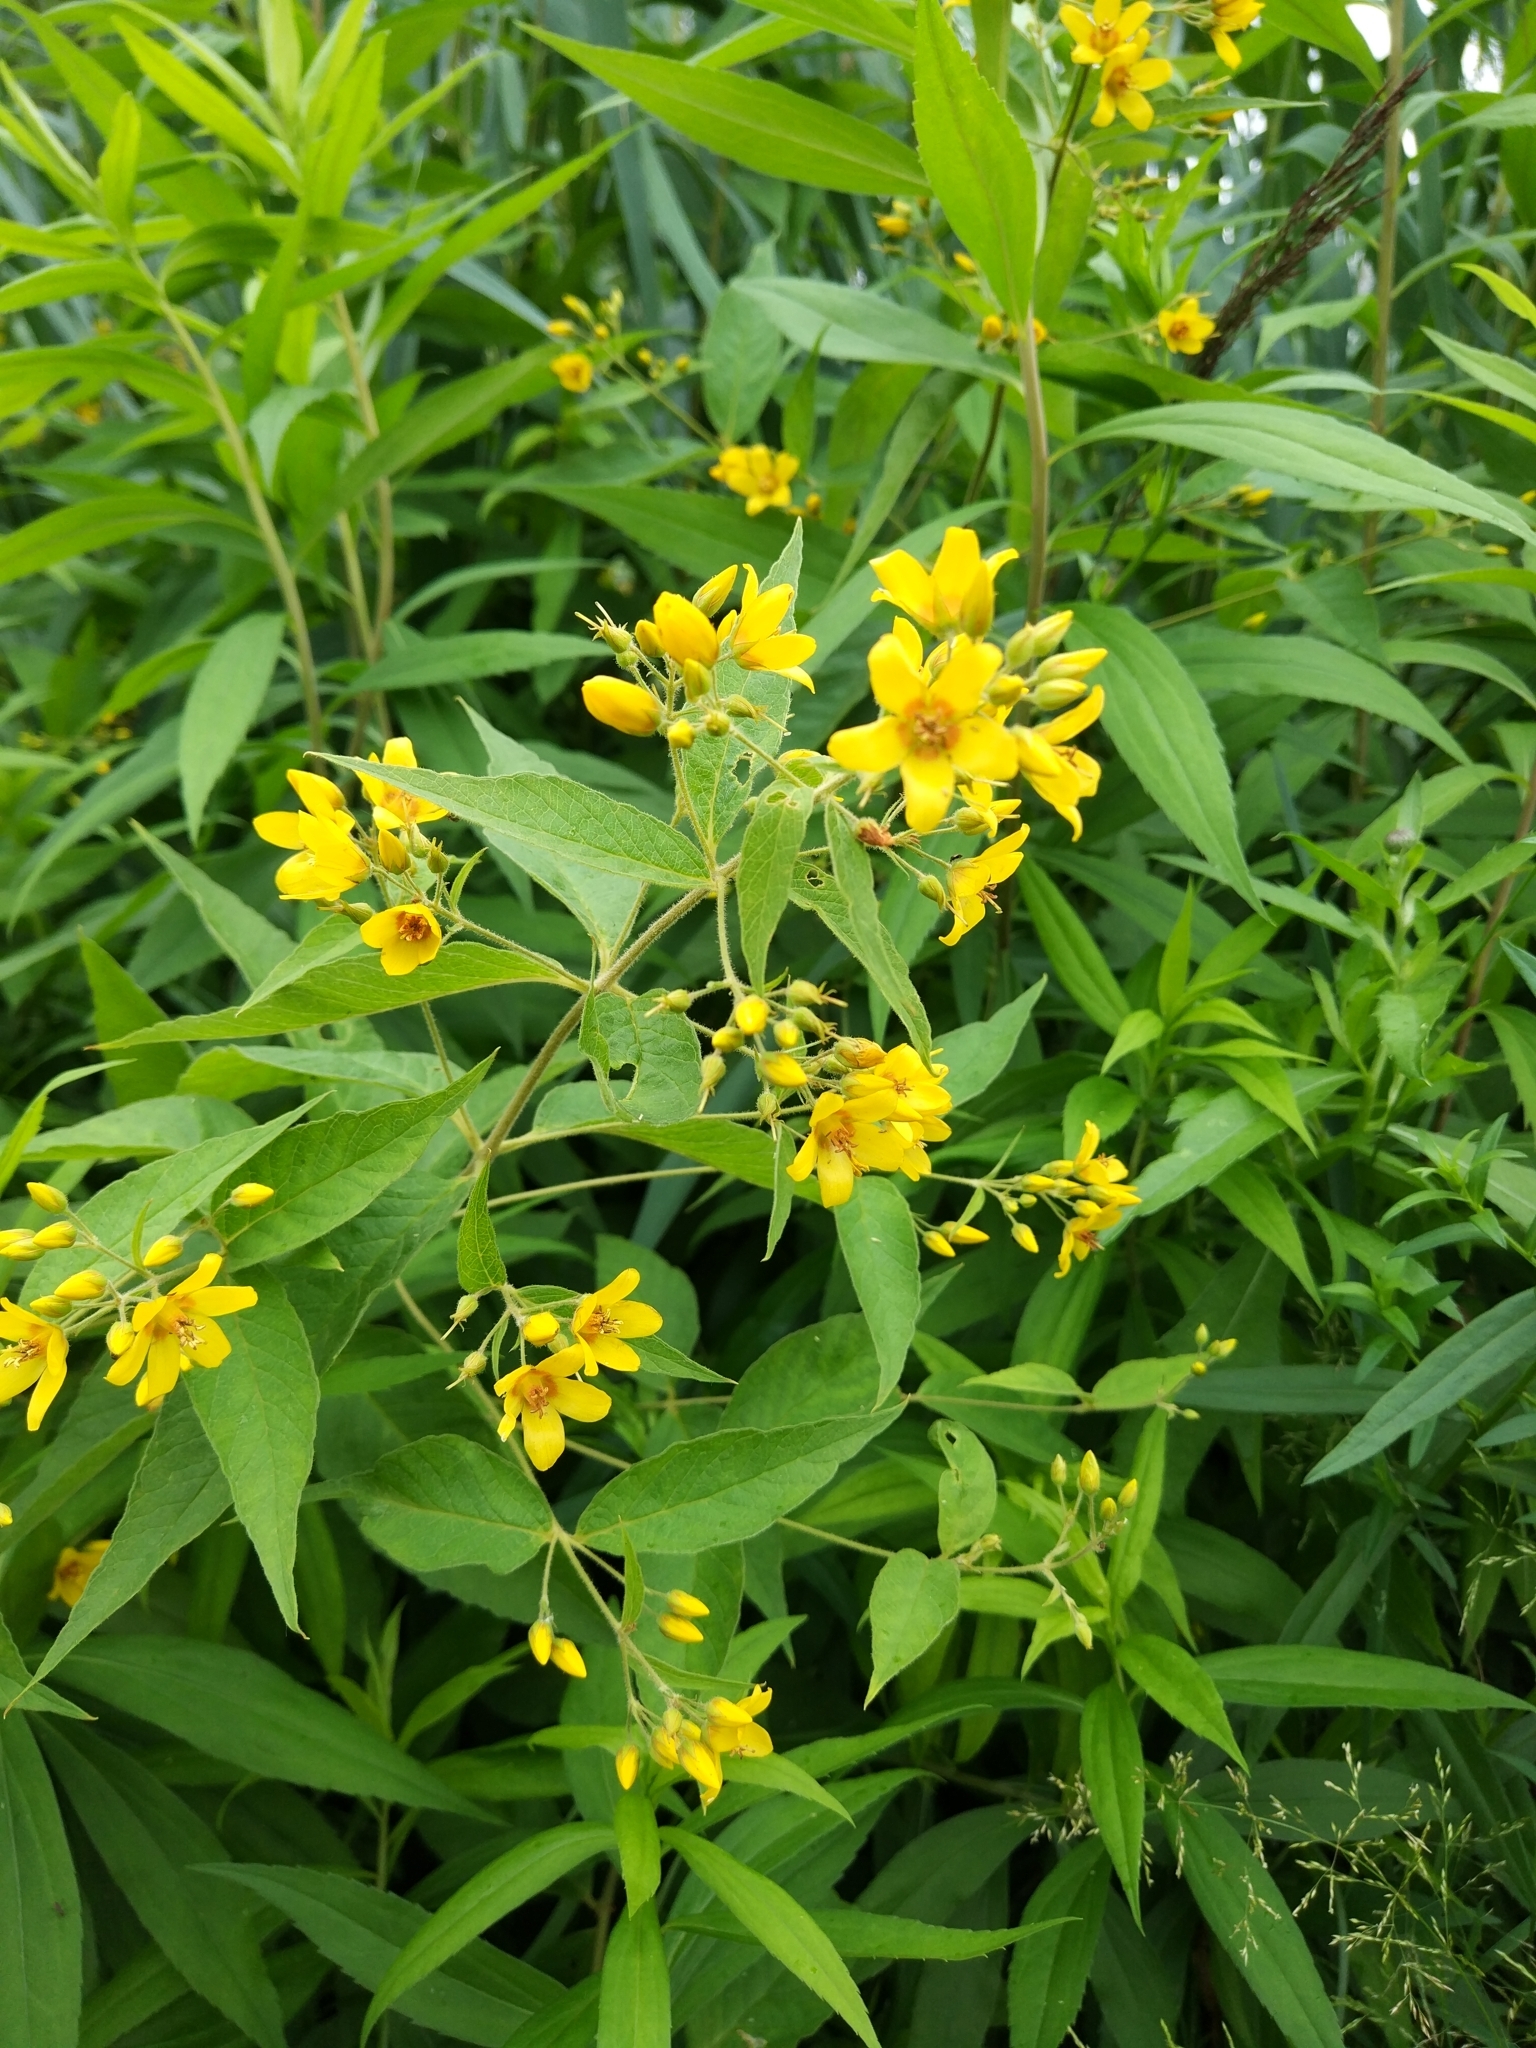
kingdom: Plantae
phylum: Tracheophyta
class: Magnoliopsida
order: Ericales
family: Primulaceae
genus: Lysimachia
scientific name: Lysimachia vulgaris
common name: Yellow loosestrife
